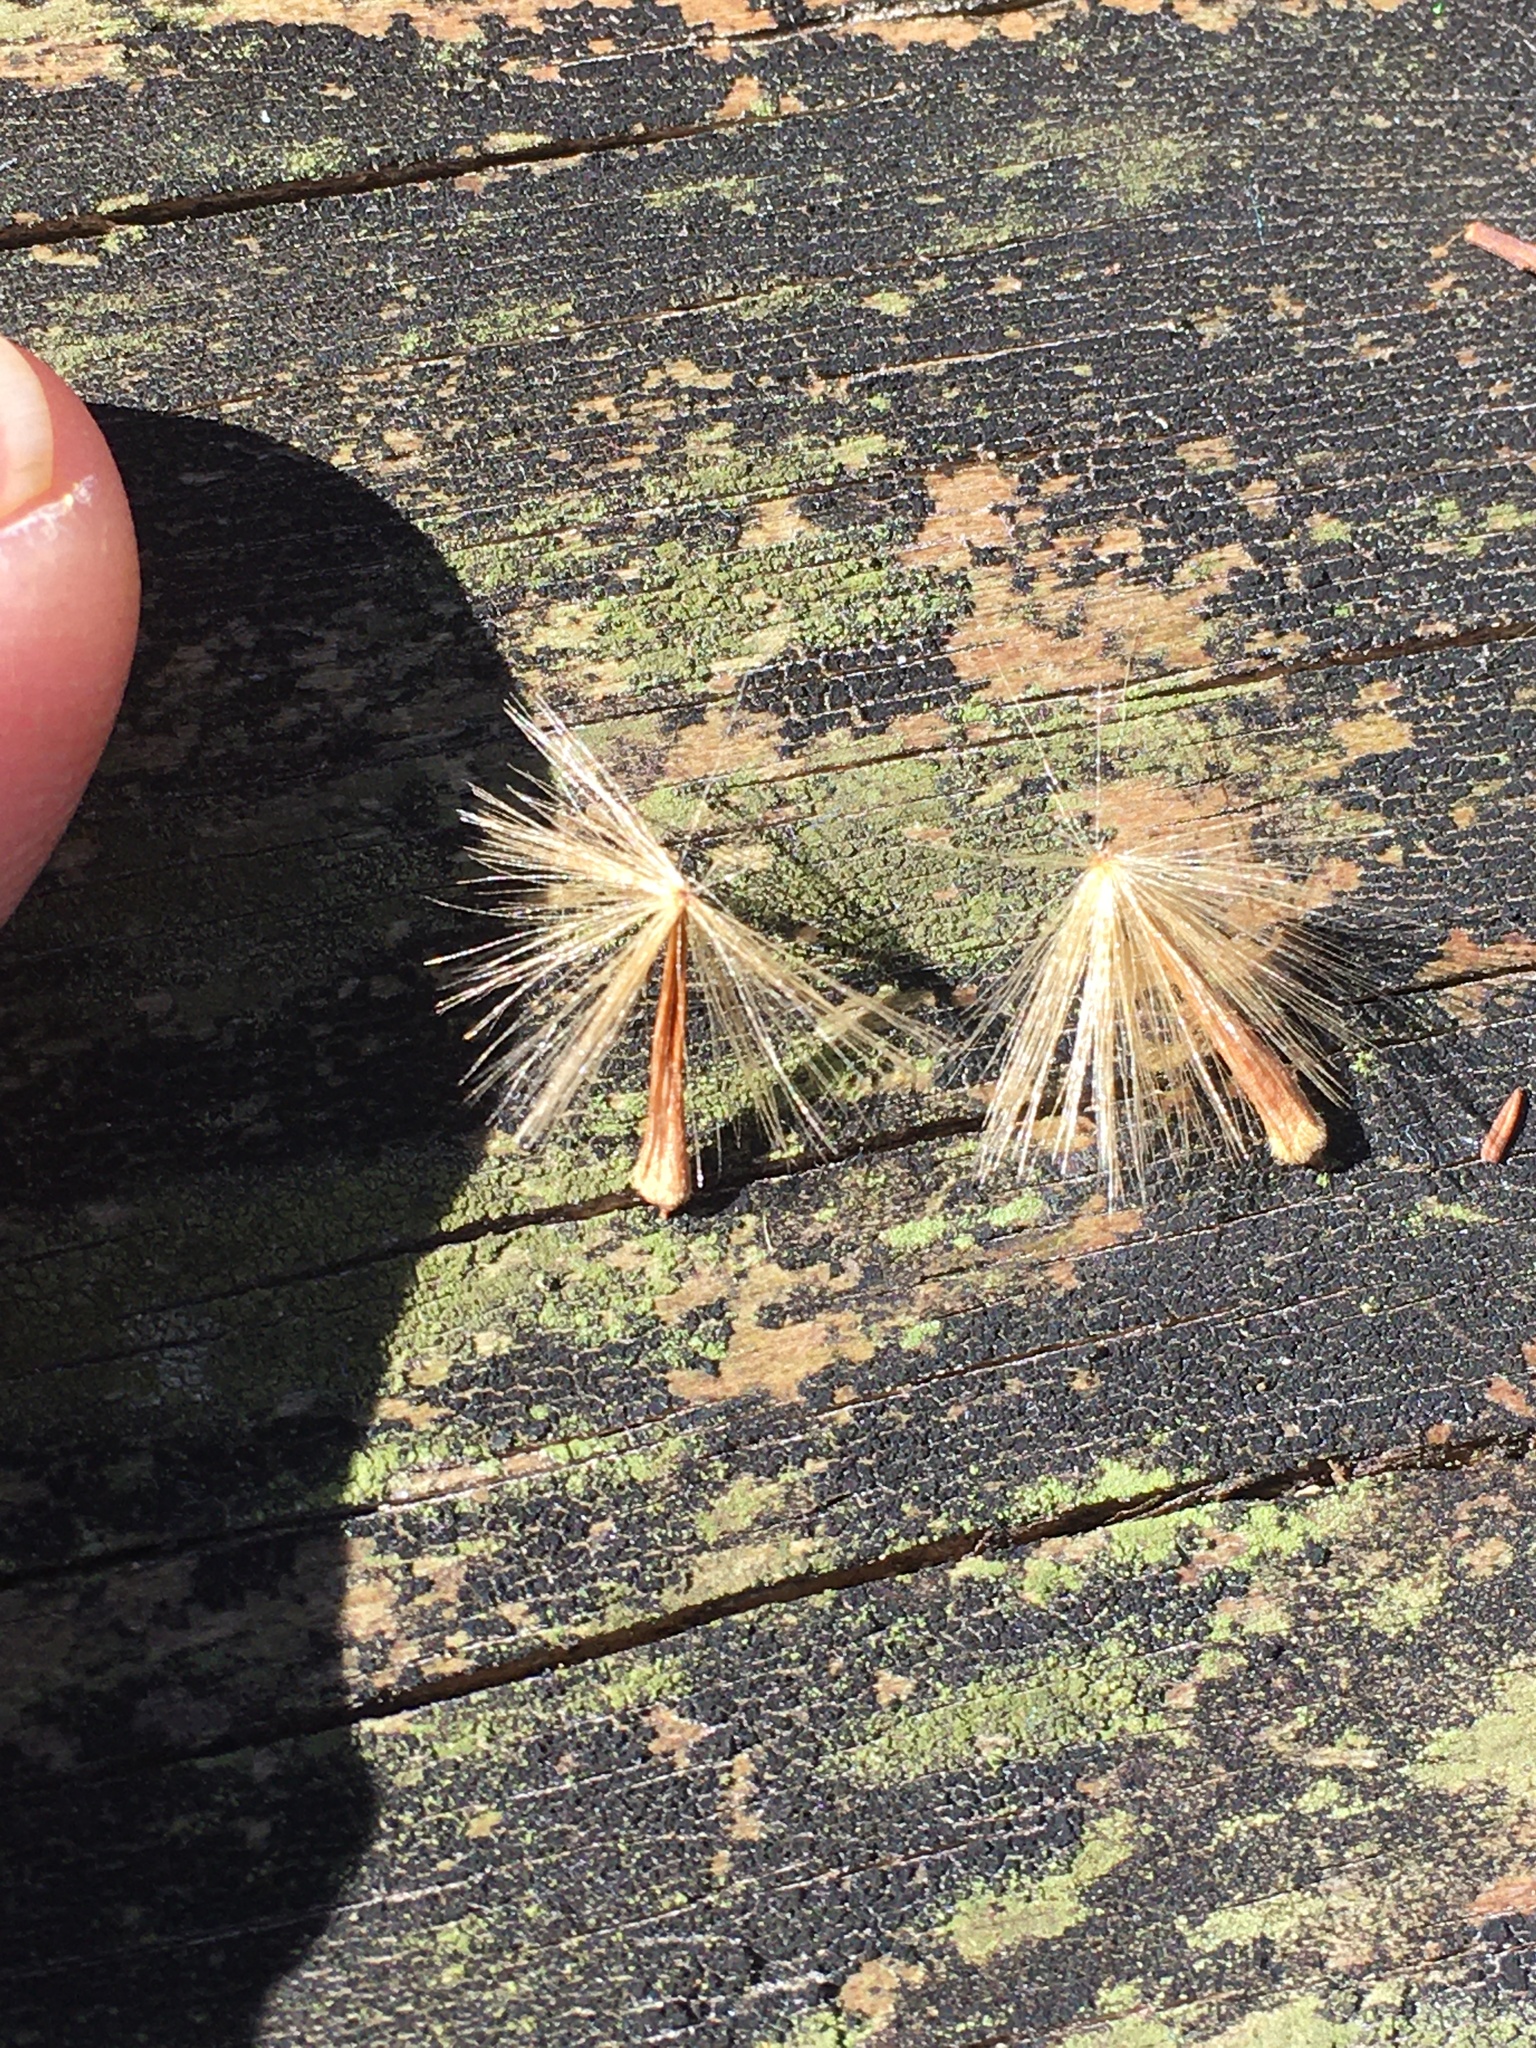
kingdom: Plantae
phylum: Tracheophyta
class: Magnoliopsida
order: Proteales
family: Platanaceae
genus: Platanus
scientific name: Platanus occidentalis
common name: American sycamore
